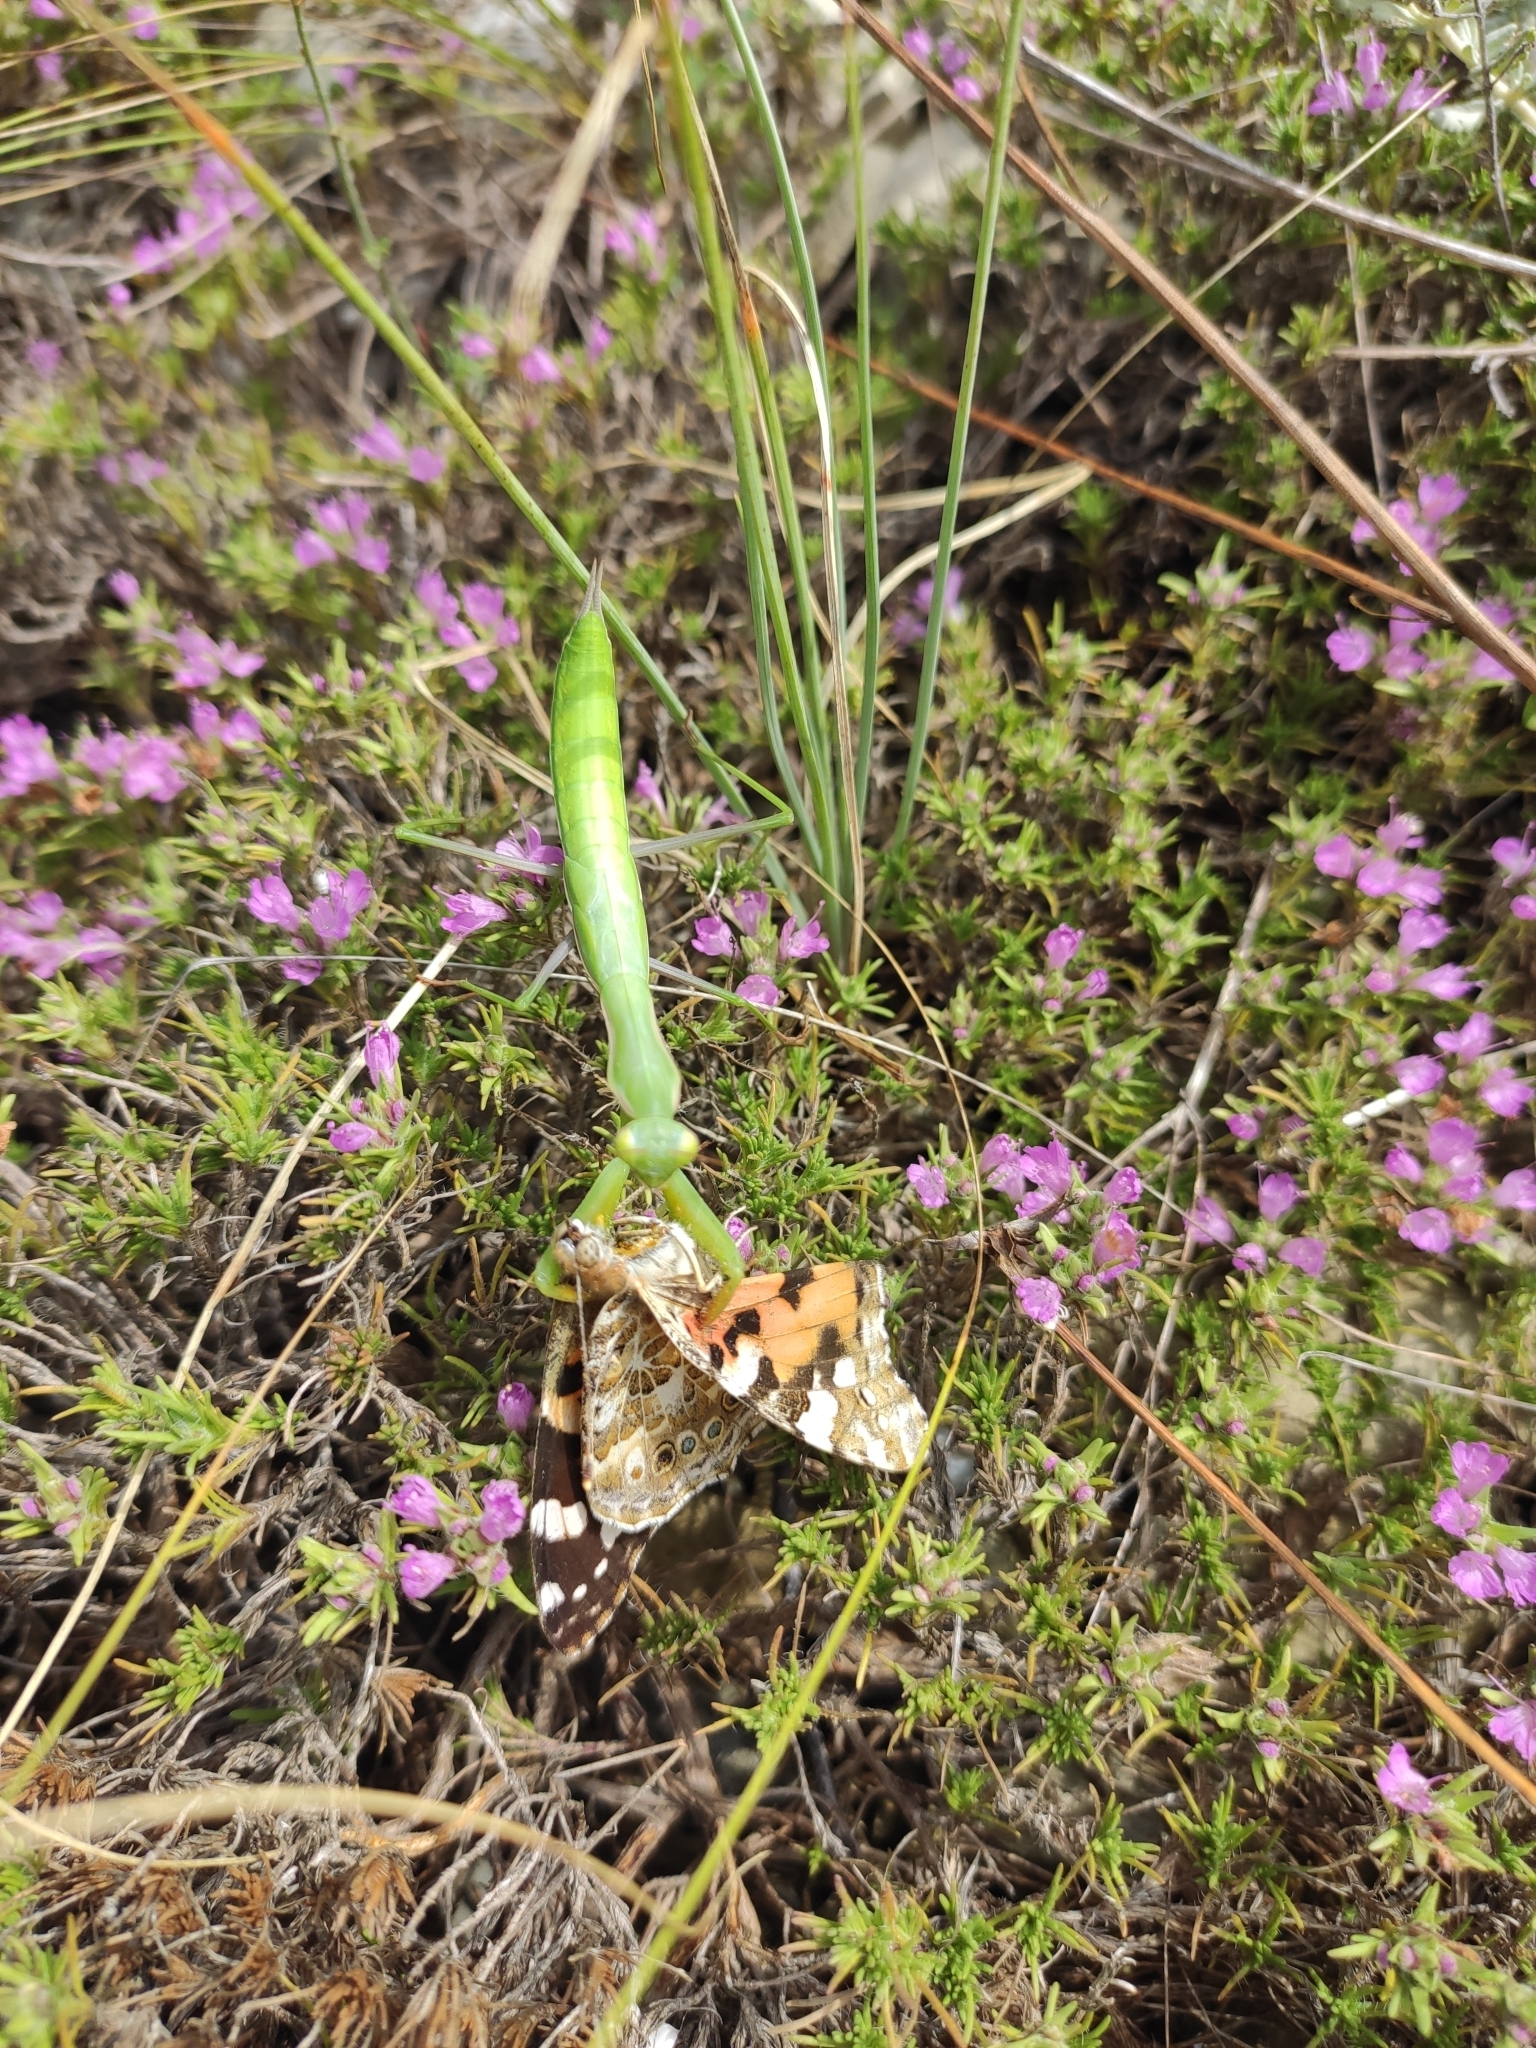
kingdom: Animalia
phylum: Arthropoda
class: Insecta
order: Lepidoptera
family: Nymphalidae
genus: Vanessa
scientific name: Vanessa cardui
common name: Painted lady
